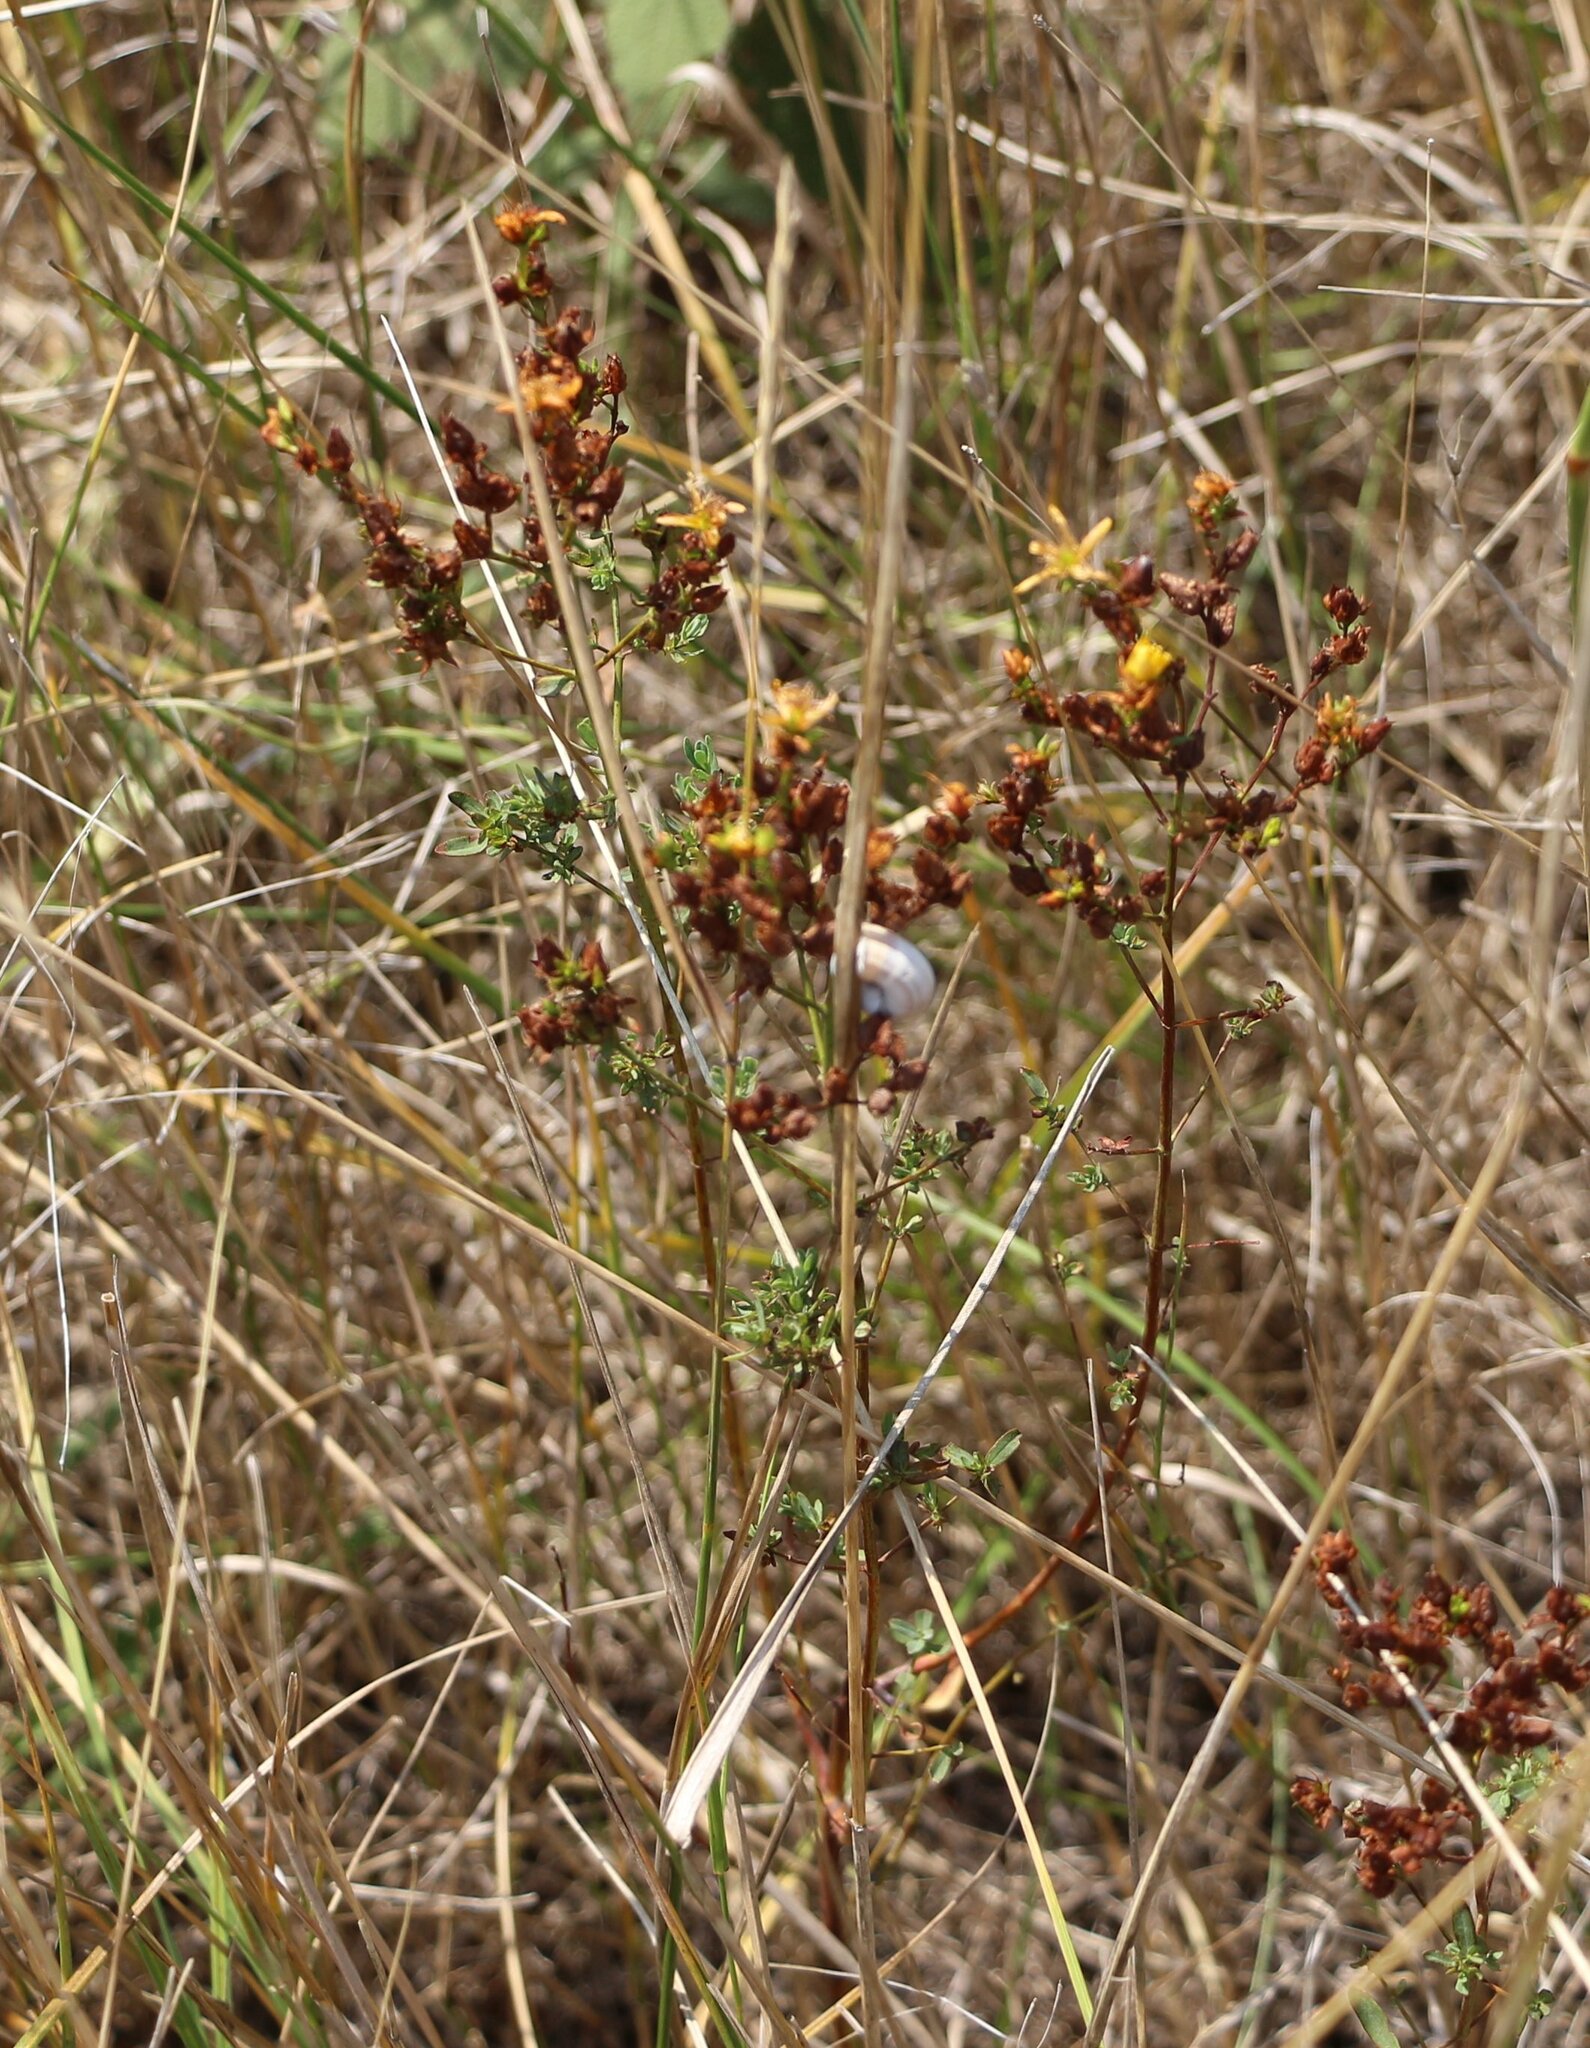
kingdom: Plantae
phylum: Tracheophyta
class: Magnoliopsida
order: Malpighiales
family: Hypericaceae
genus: Hypericum
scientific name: Hypericum perforatum
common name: Common st. johnswort
